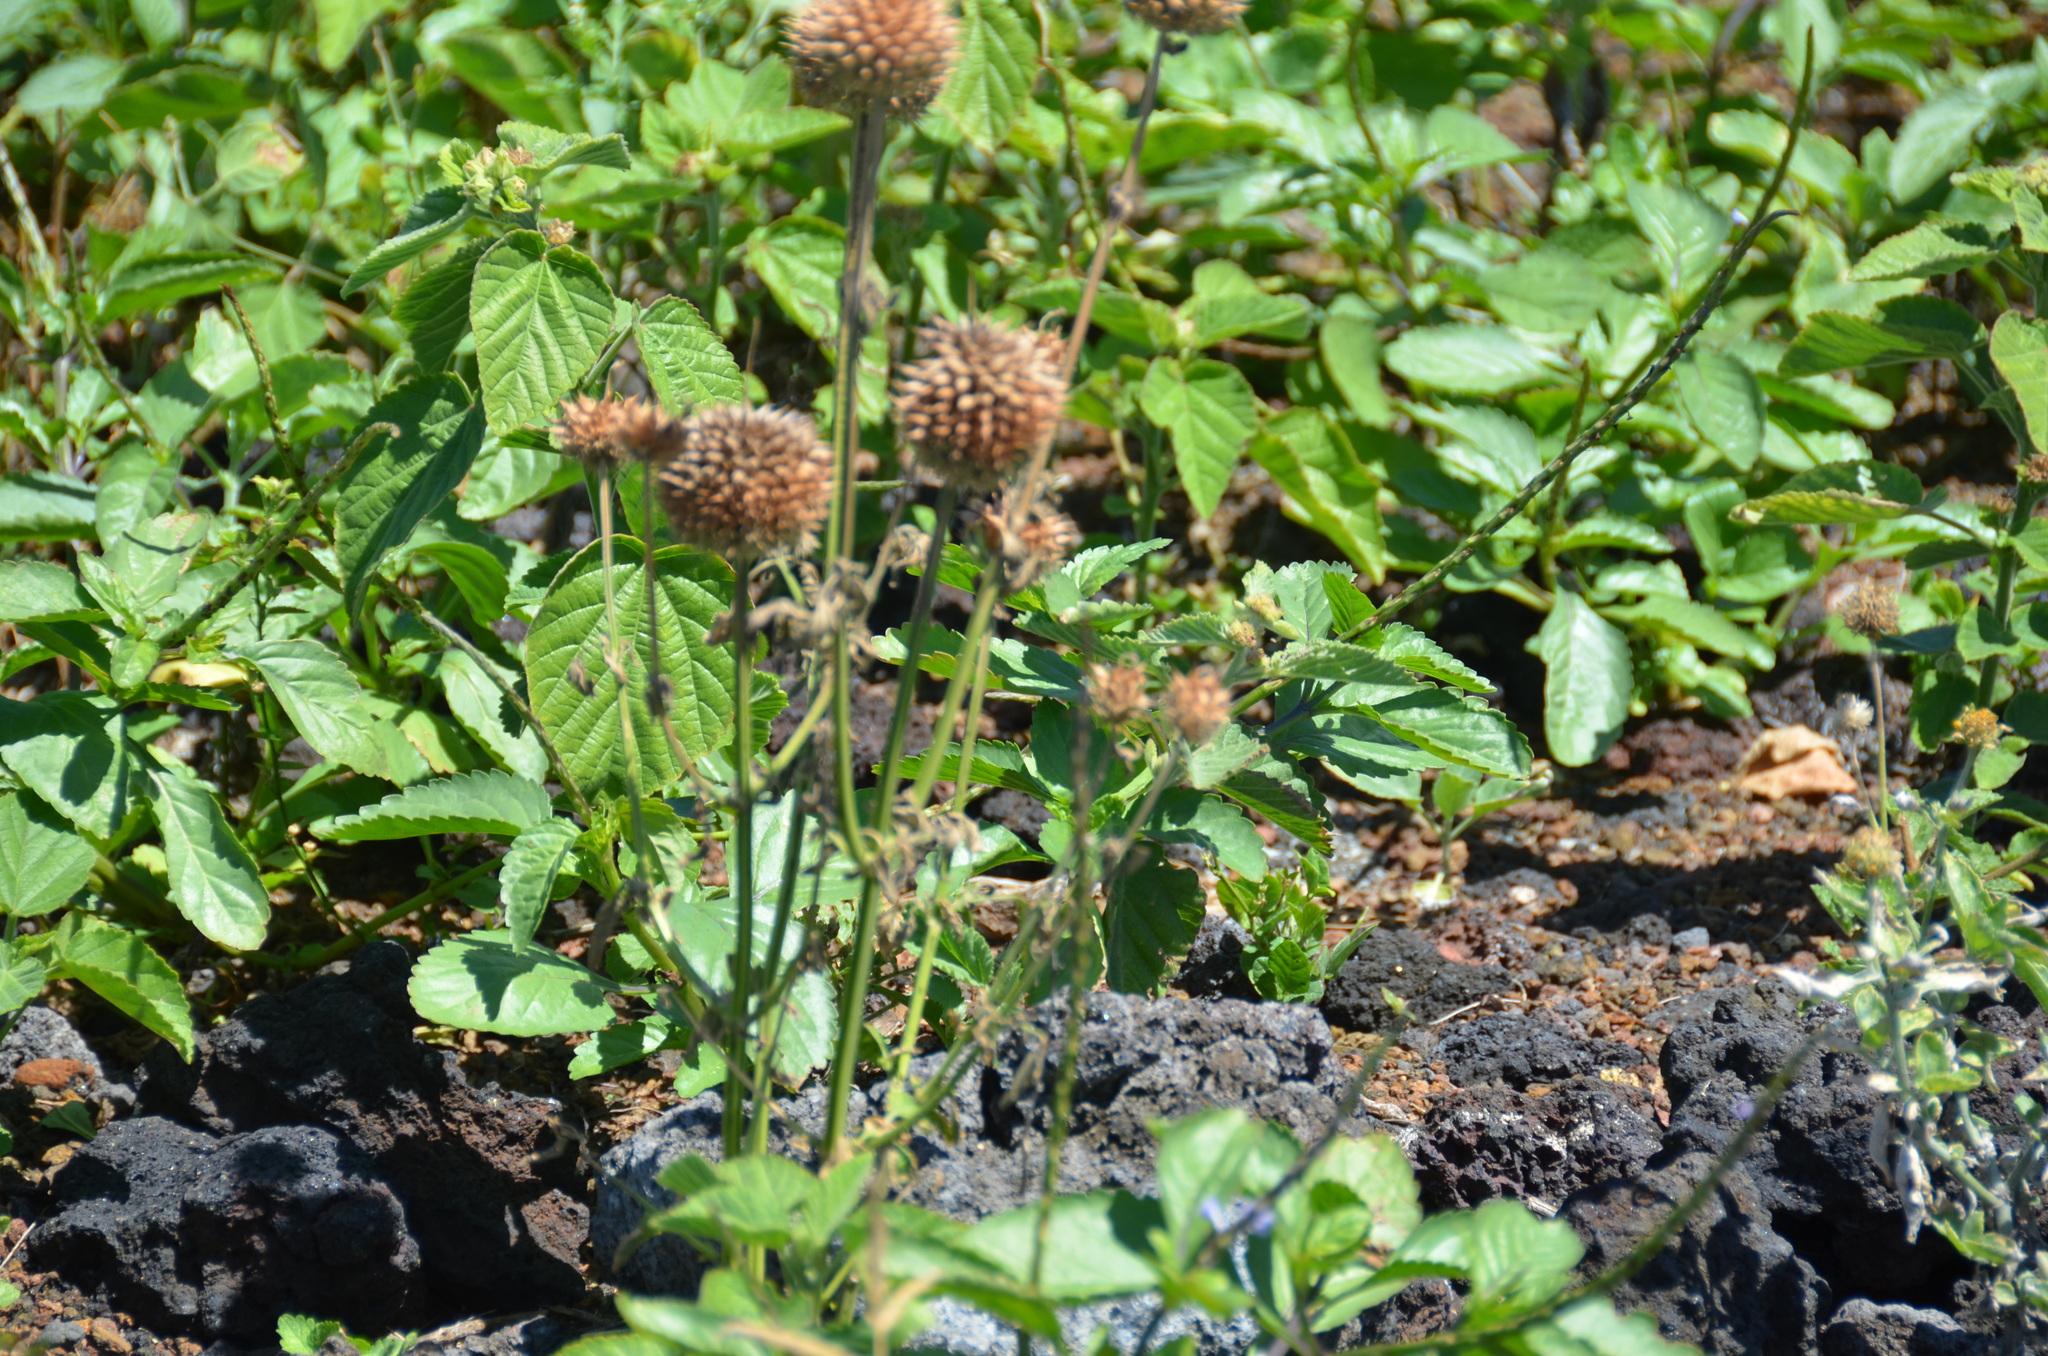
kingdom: Plantae
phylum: Tracheophyta
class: Magnoliopsida
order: Lamiales
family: Lamiaceae
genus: Leonotis
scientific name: Leonotis nepetifolia
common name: Christmas candlestick
